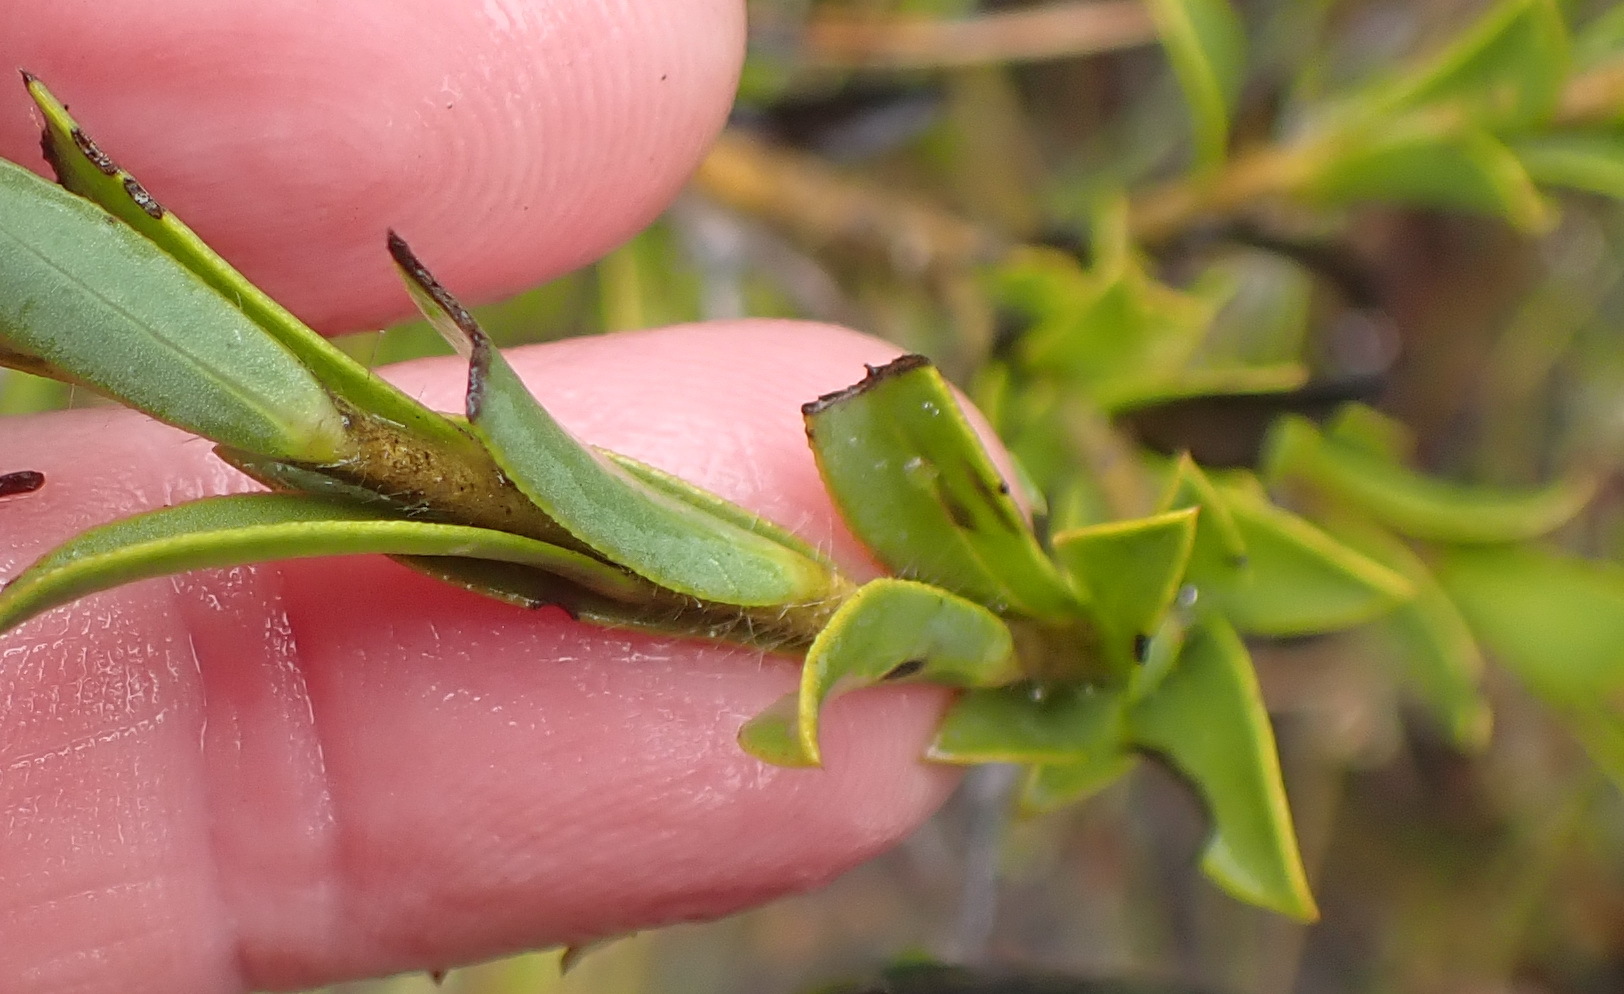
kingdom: Plantae
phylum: Tracheophyta
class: Magnoliopsida
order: Fabales
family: Fabaceae
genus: Liparia
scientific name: Liparia hirsuta
